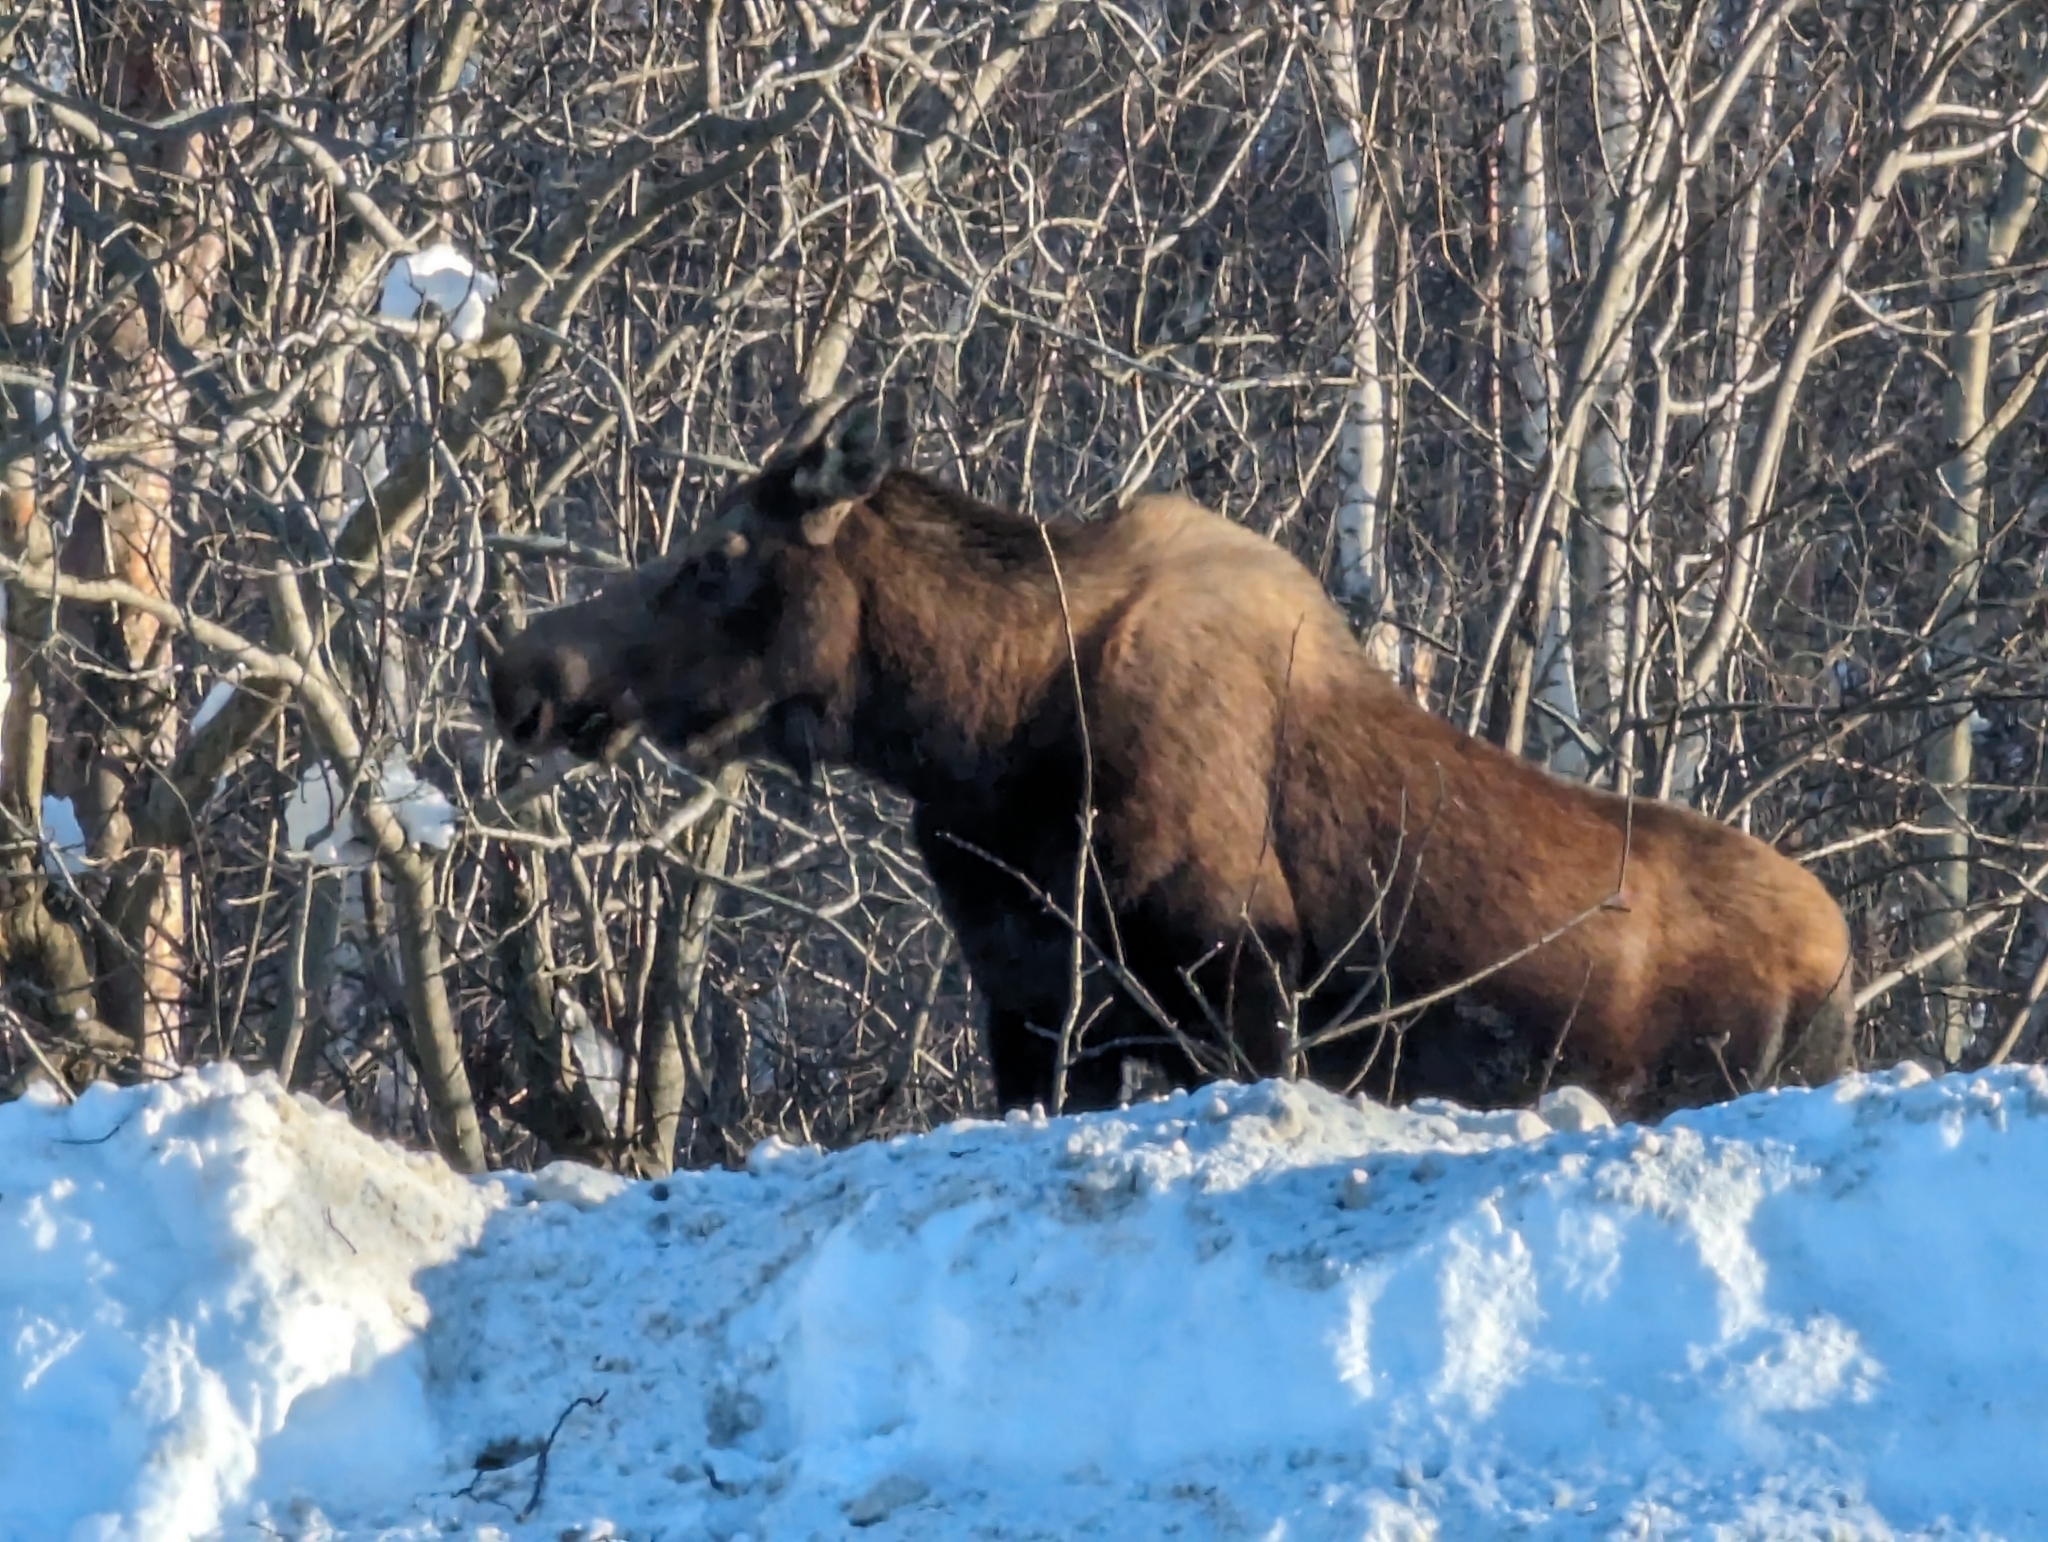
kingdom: Animalia
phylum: Chordata
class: Mammalia
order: Artiodactyla
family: Cervidae
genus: Alces
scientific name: Alces alces
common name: Moose
